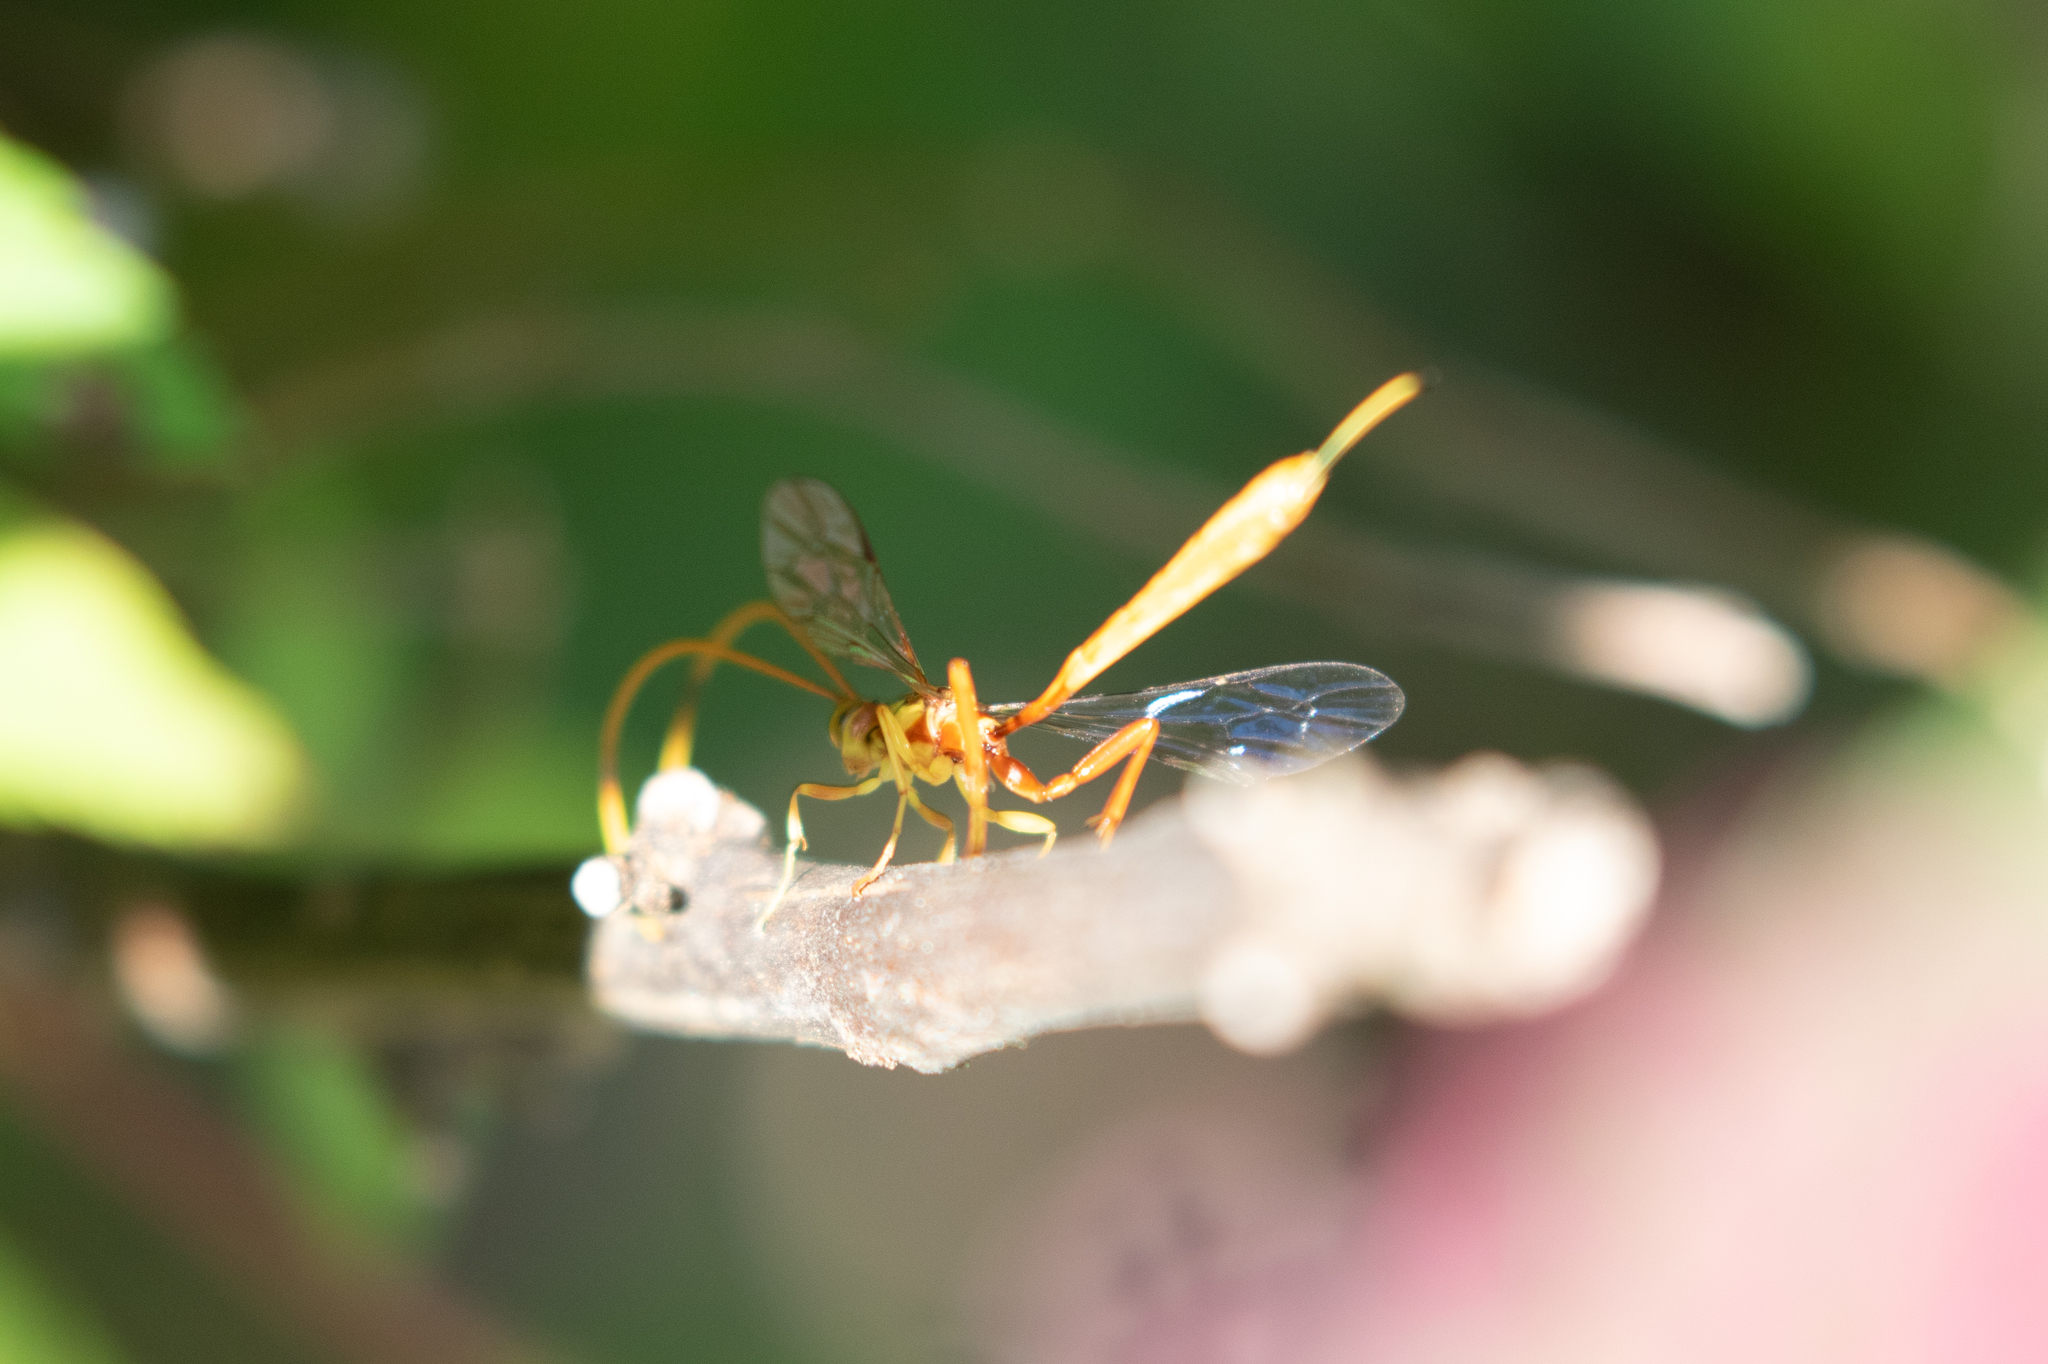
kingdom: Animalia
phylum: Arthropoda
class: Insecta
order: Hymenoptera
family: Ichneumonidae
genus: Grotea
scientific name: Grotea anguina
